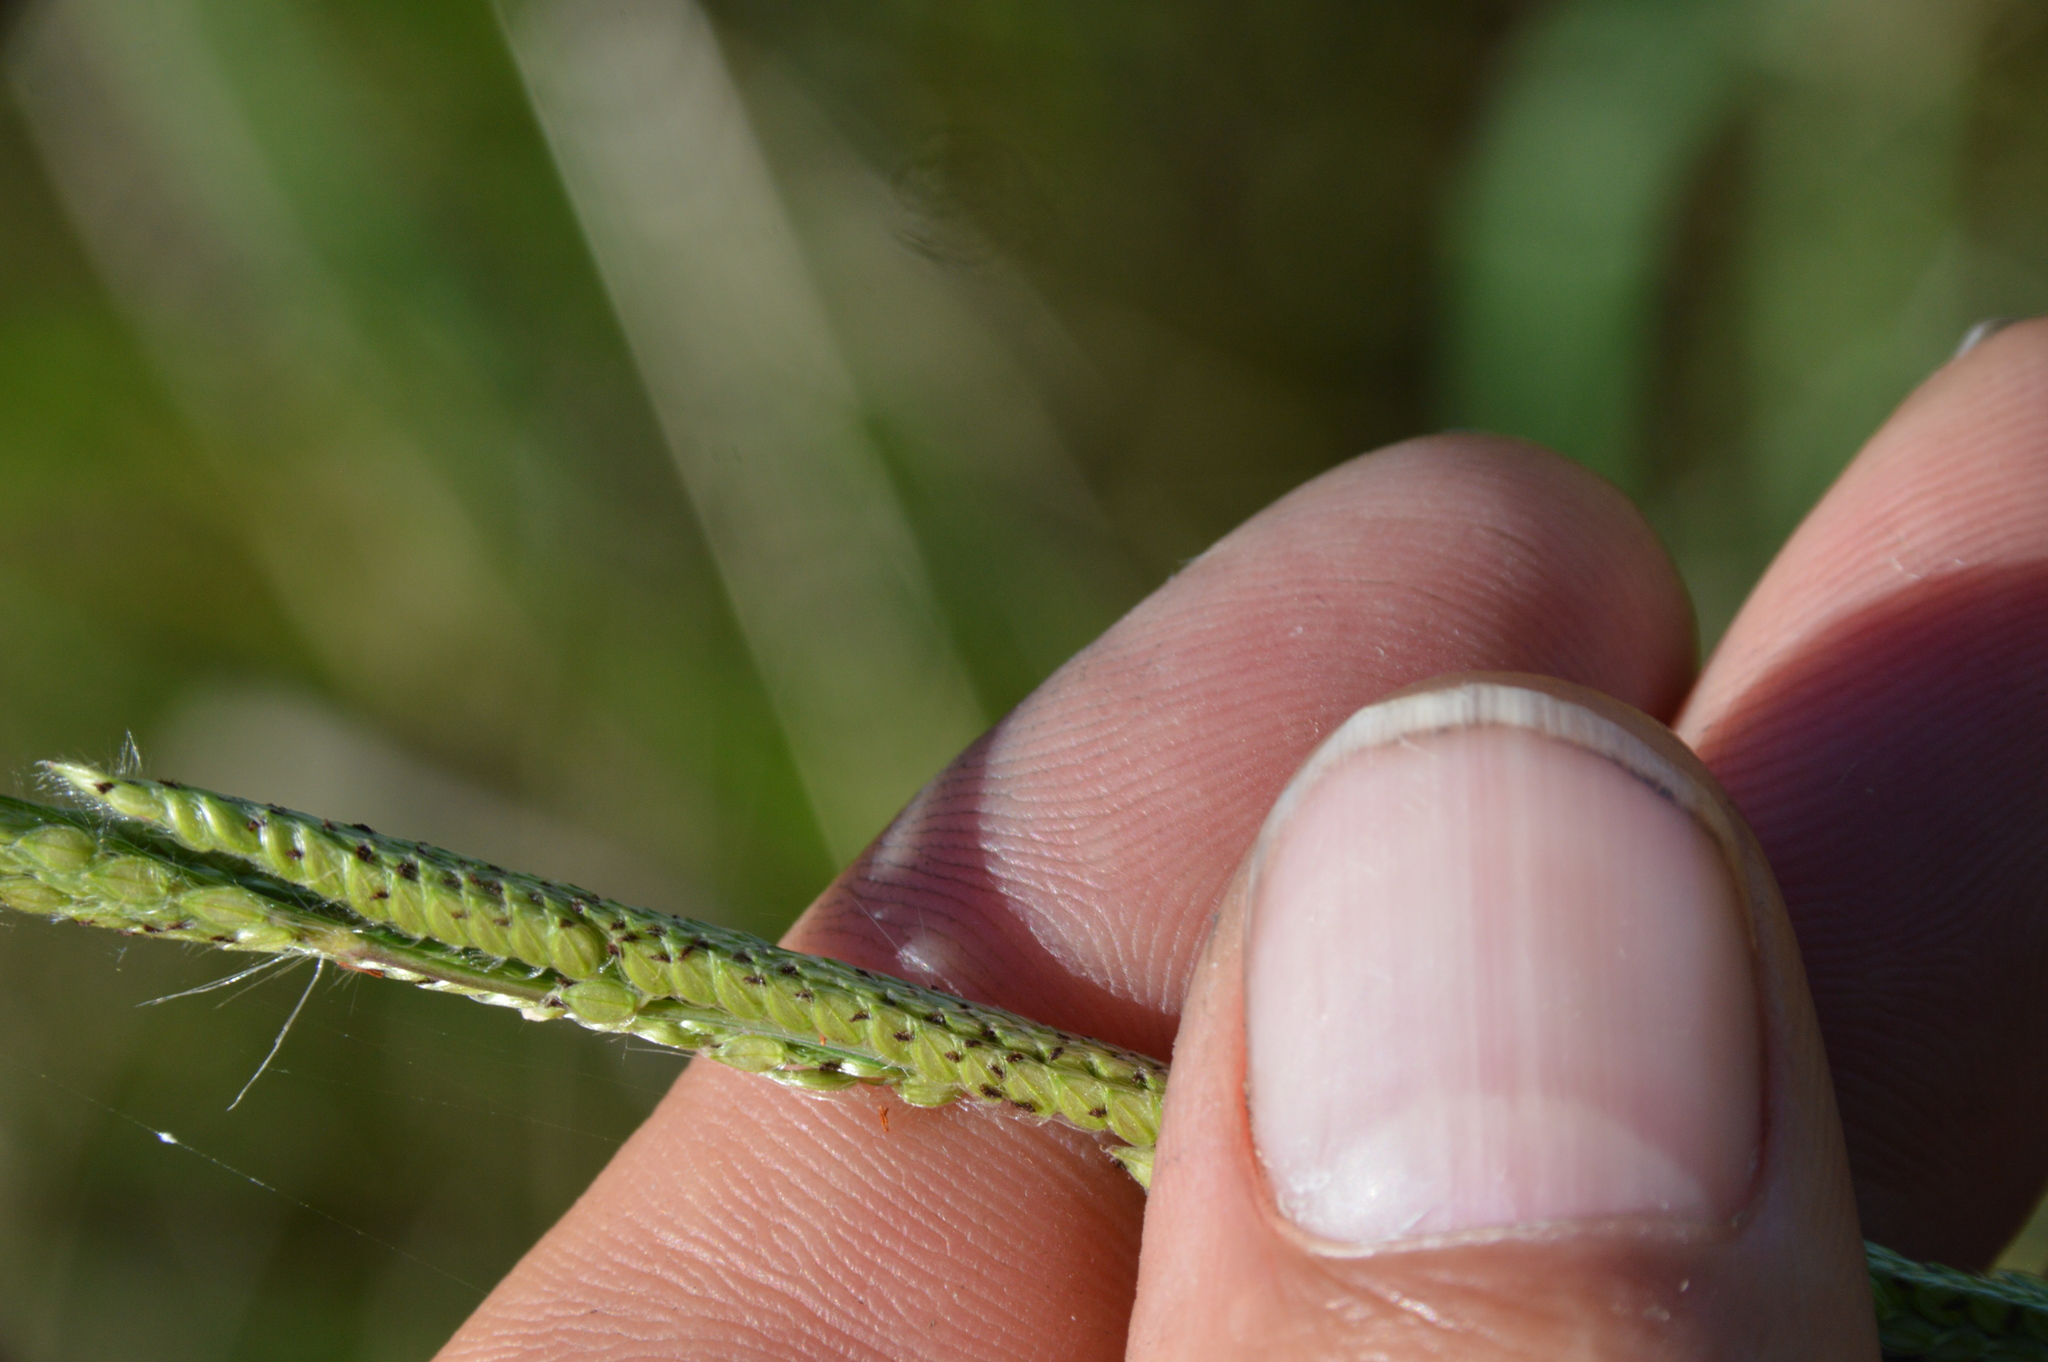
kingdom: Plantae
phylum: Tracheophyta
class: Liliopsida
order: Poales
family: Poaceae
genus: Paspalum
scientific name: Paspalum urvillei
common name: Vasey's grass
